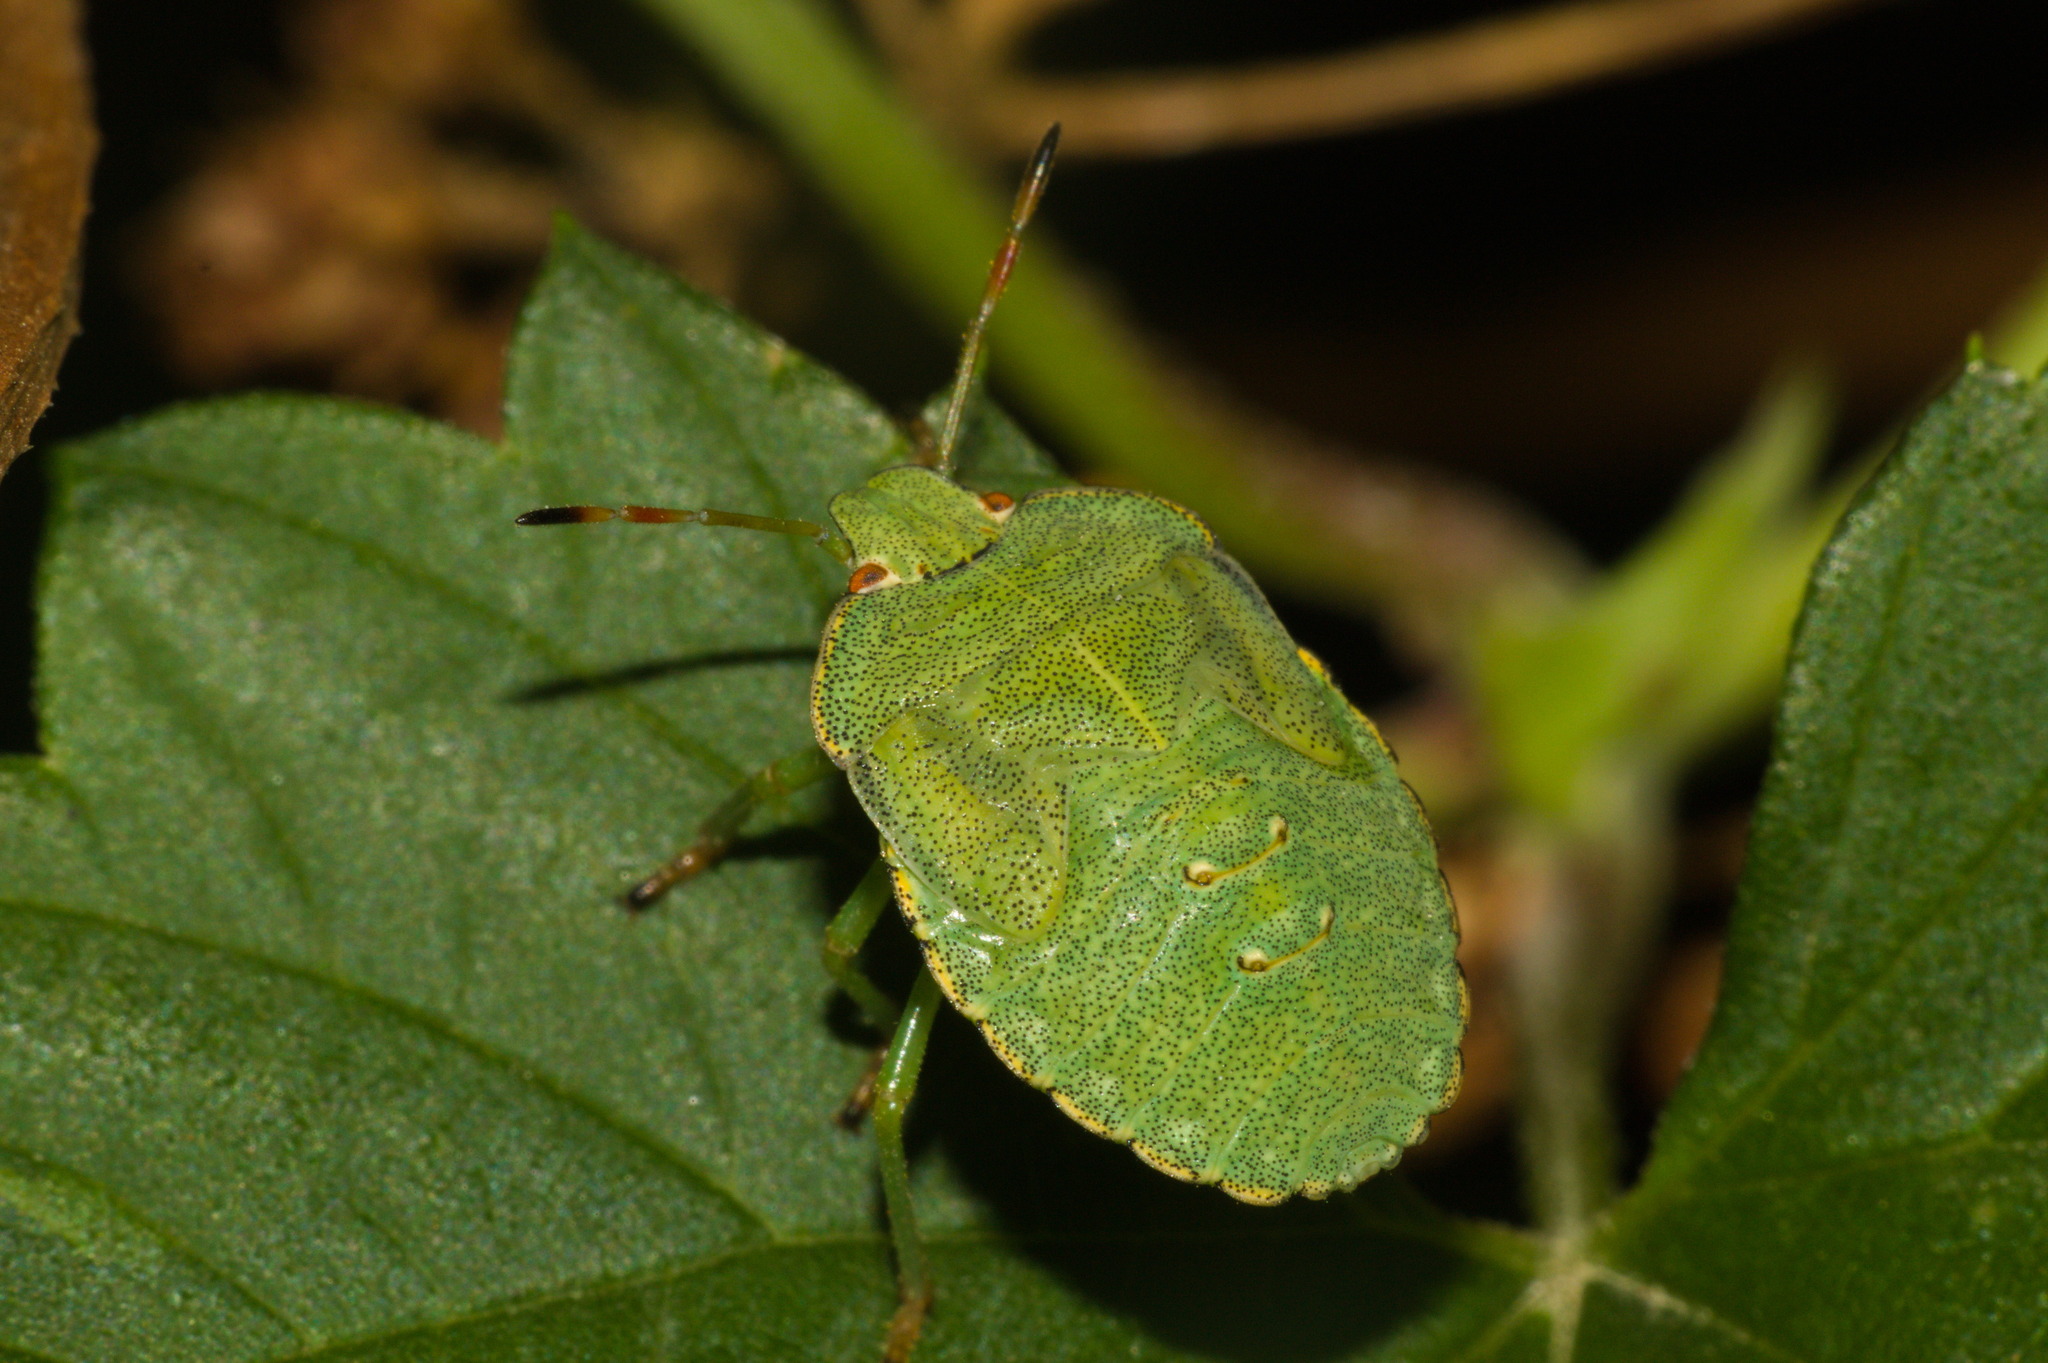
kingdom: Animalia
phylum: Arthropoda
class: Insecta
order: Hemiptera
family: Pentatomidae
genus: Palomena
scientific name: Palomena prasina
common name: Green shieldbug
